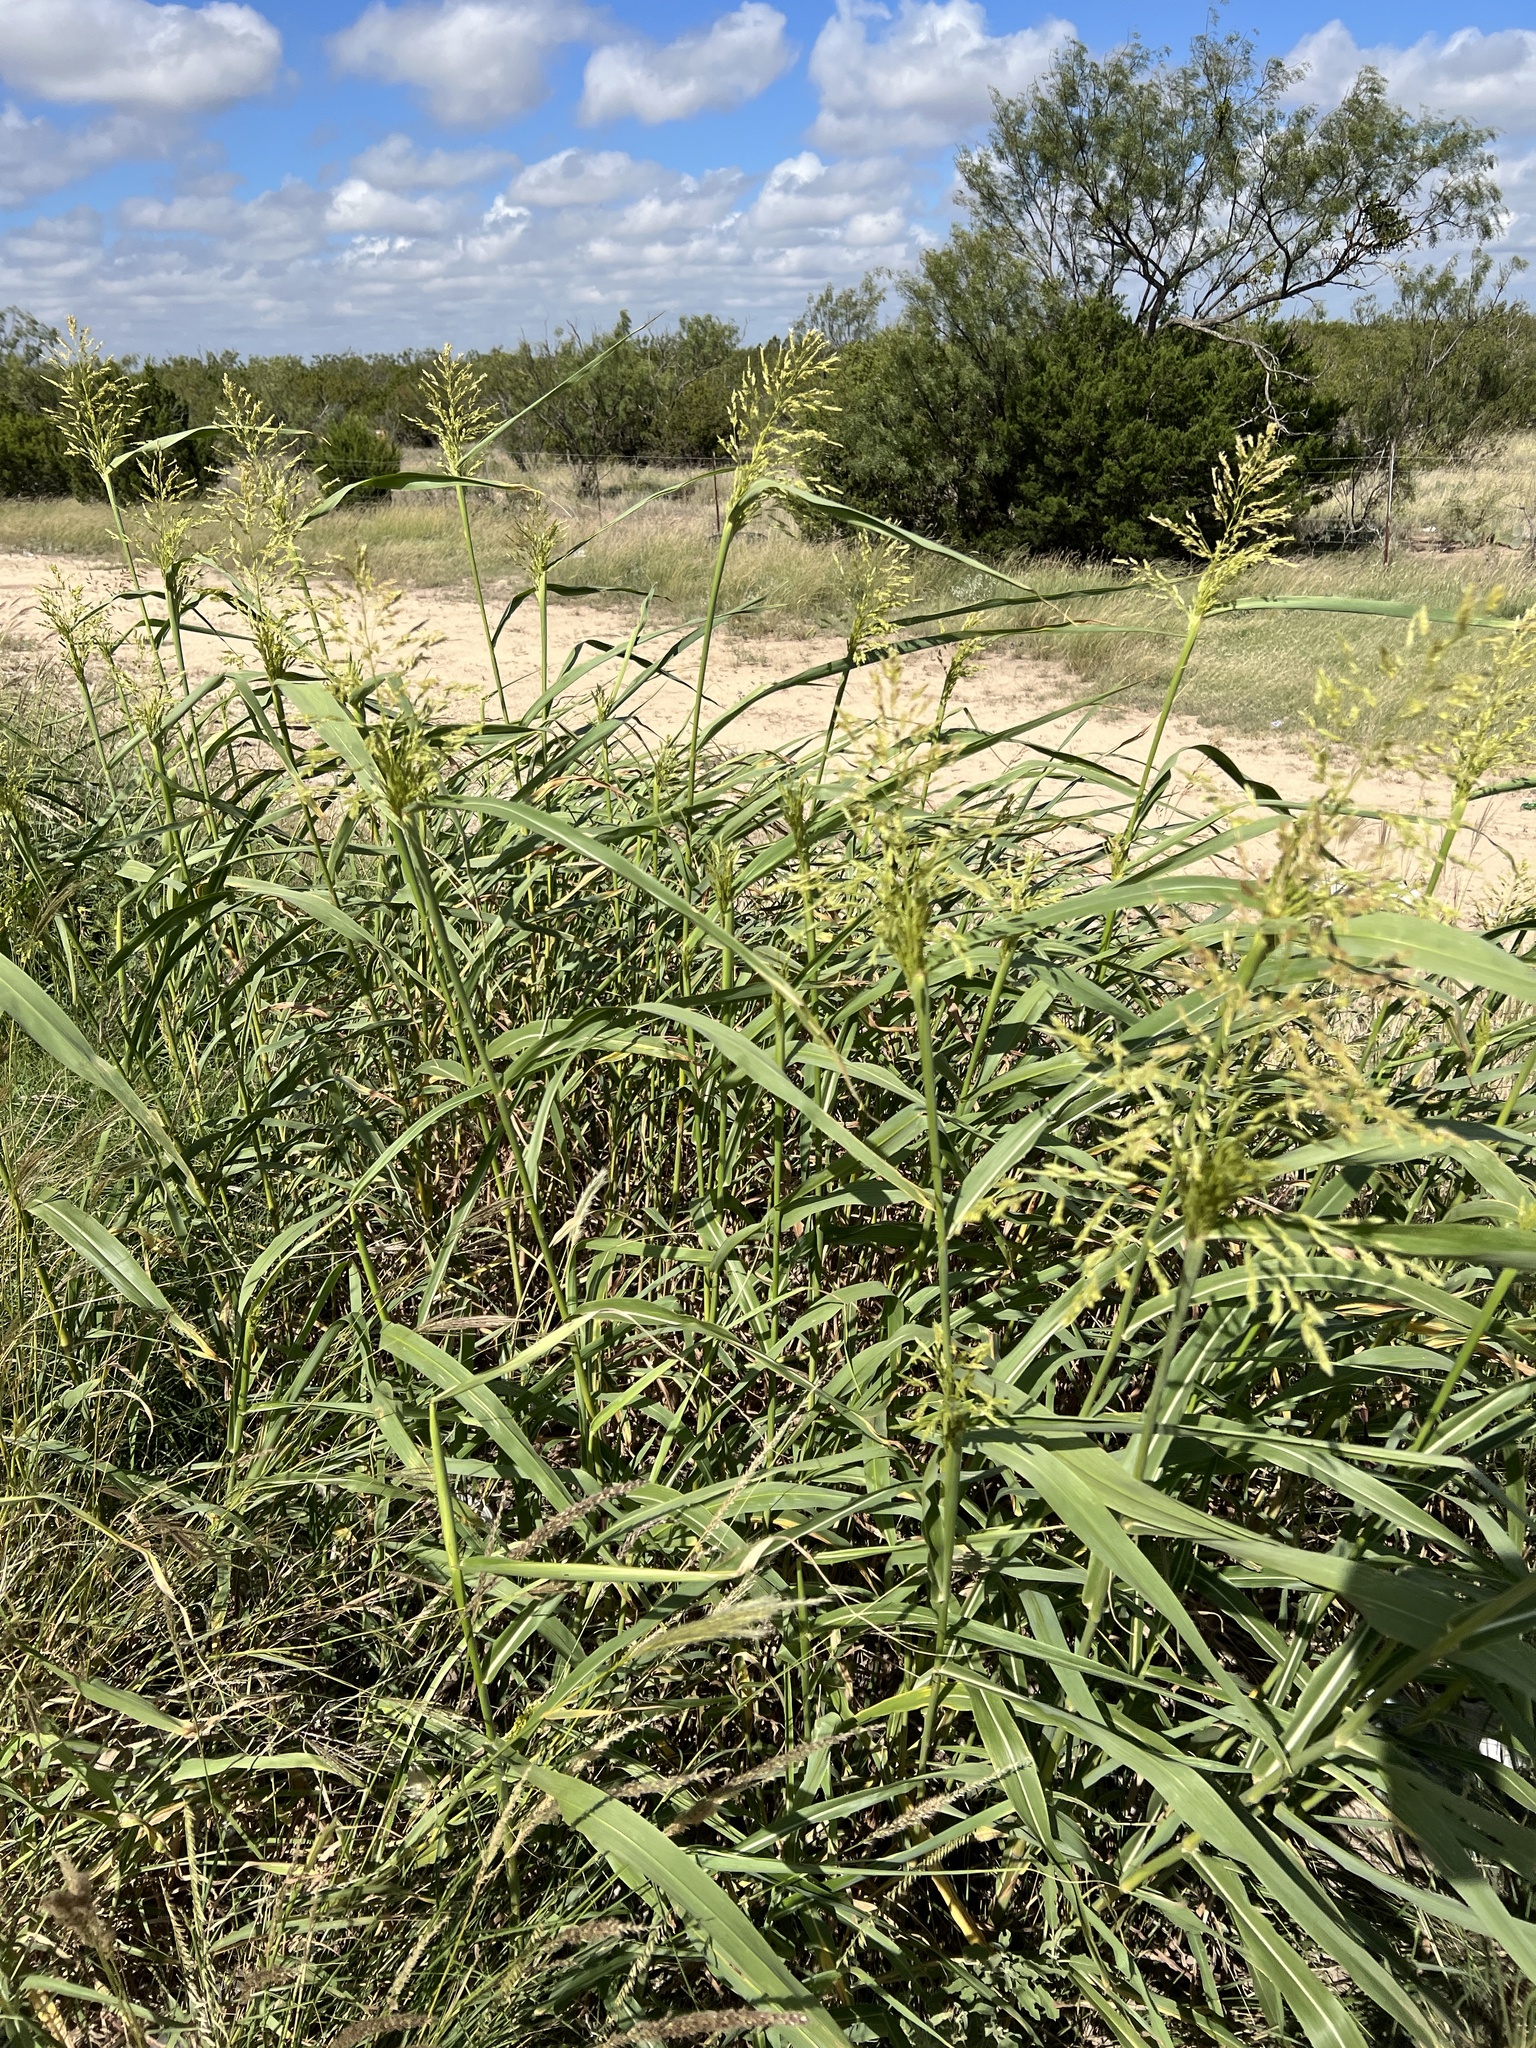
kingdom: Plantae
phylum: Tracheophyta
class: Liliopsida
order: Poales
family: Poaceae
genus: Sorghum
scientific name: Sorghum halepense
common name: Johnson-grass
